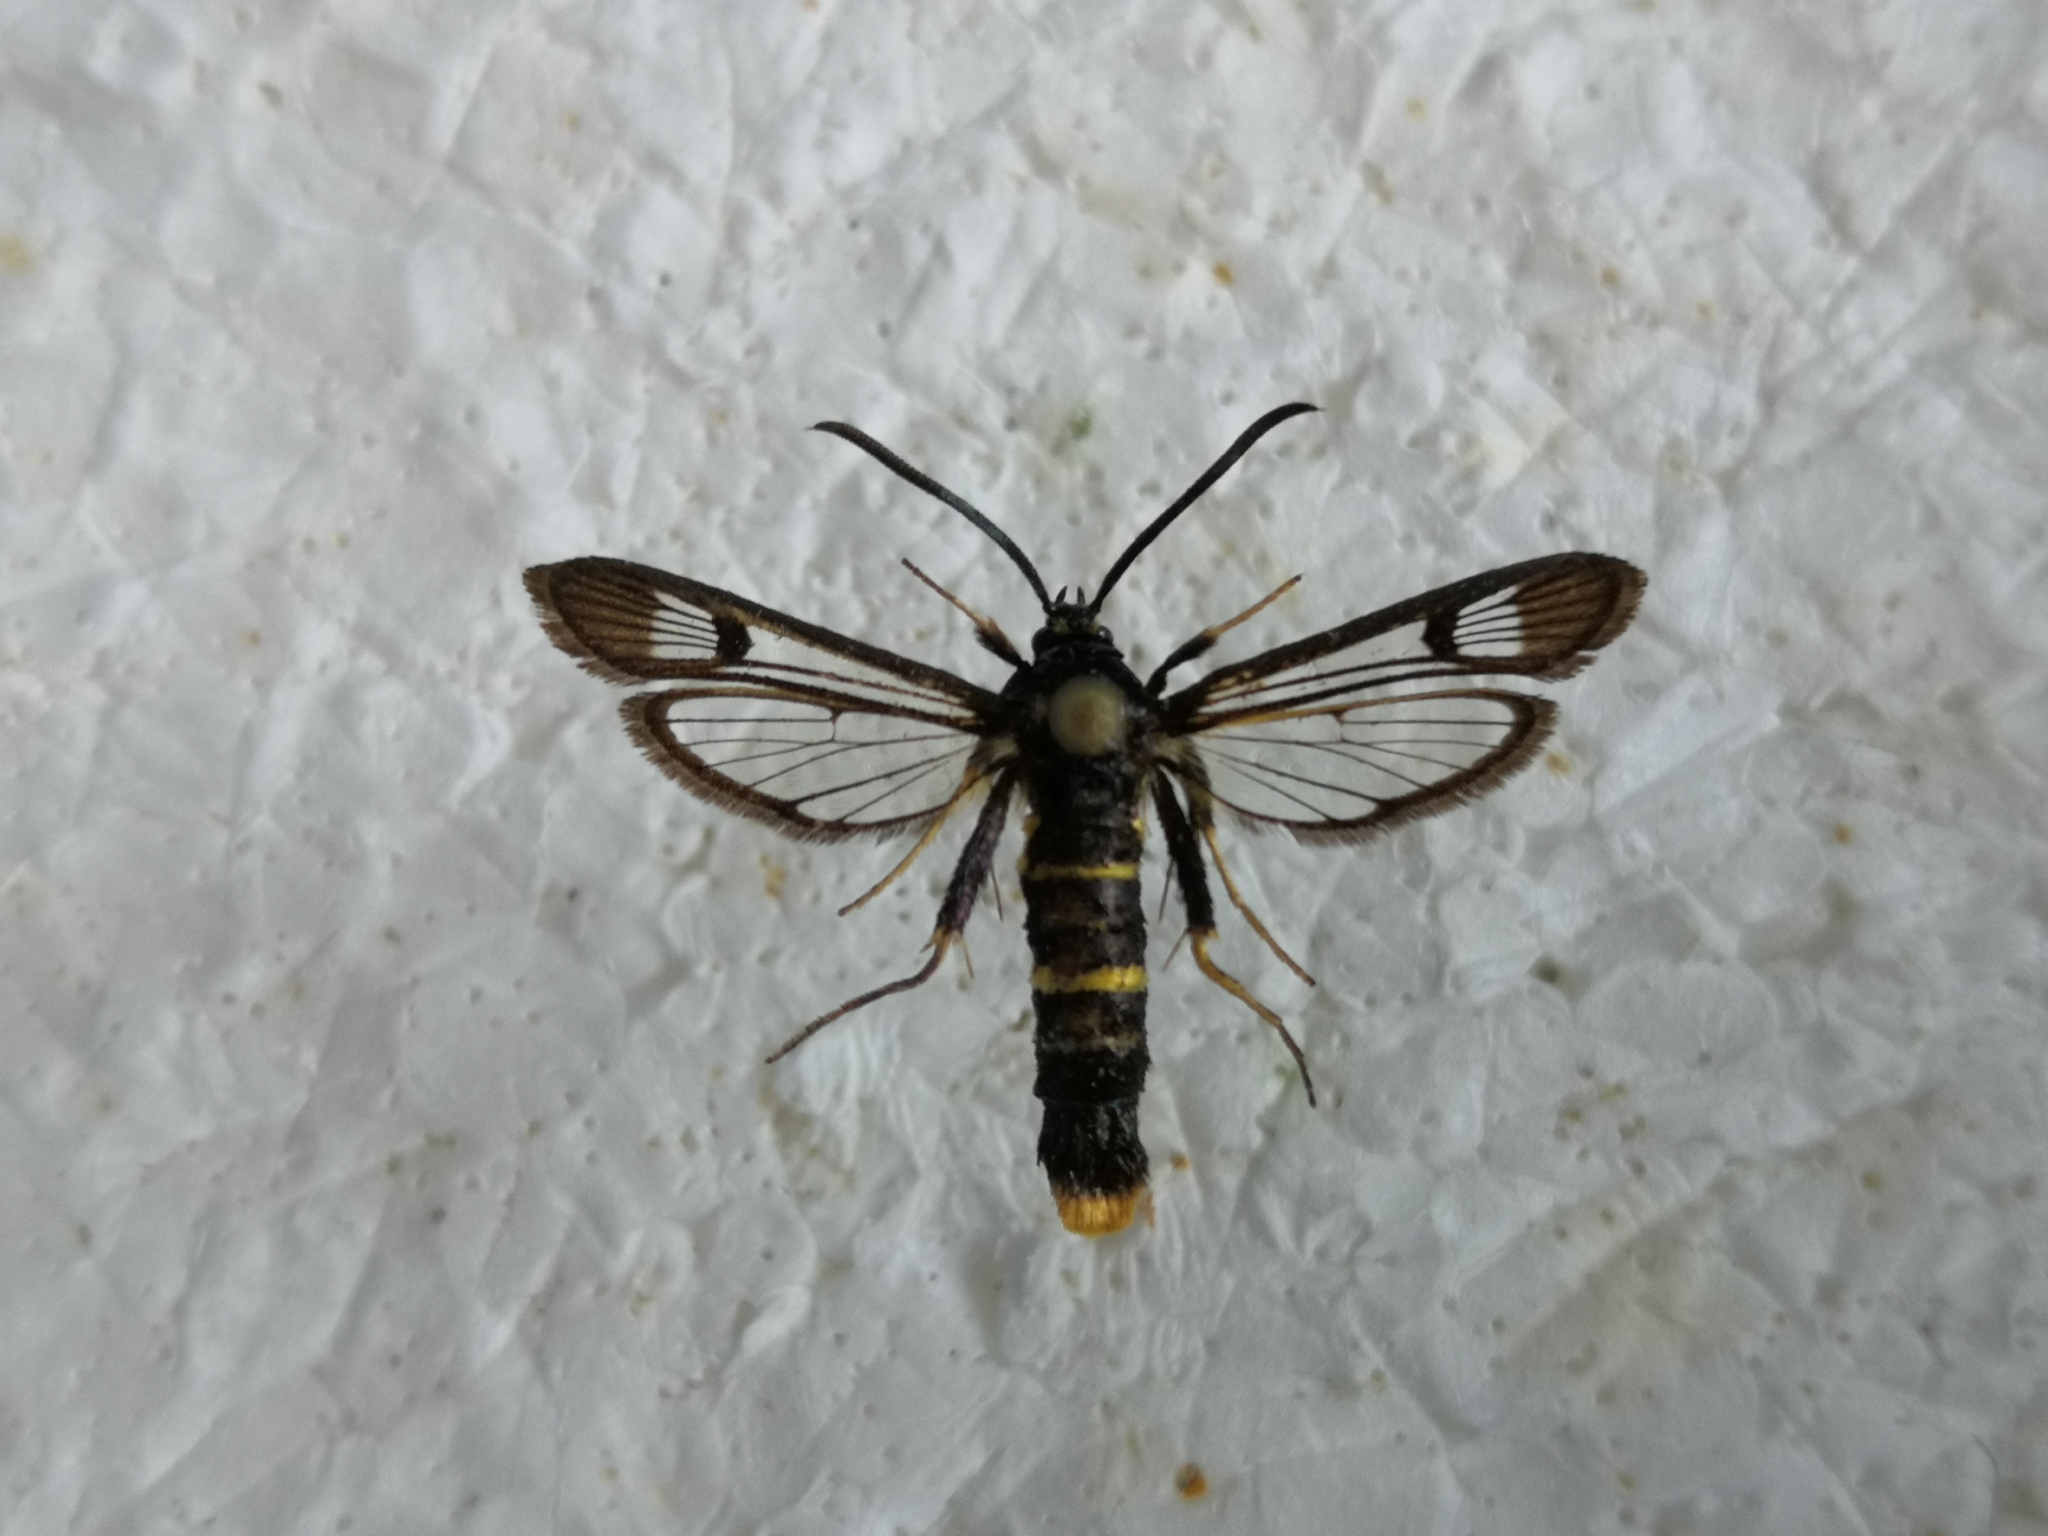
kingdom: Animalia
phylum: Arthropoda
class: Insecta
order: Lepidoptera
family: Sesiidae
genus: Synanthedon
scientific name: Synanthedon andrenaeformis
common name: Orange-tailed clearwing
